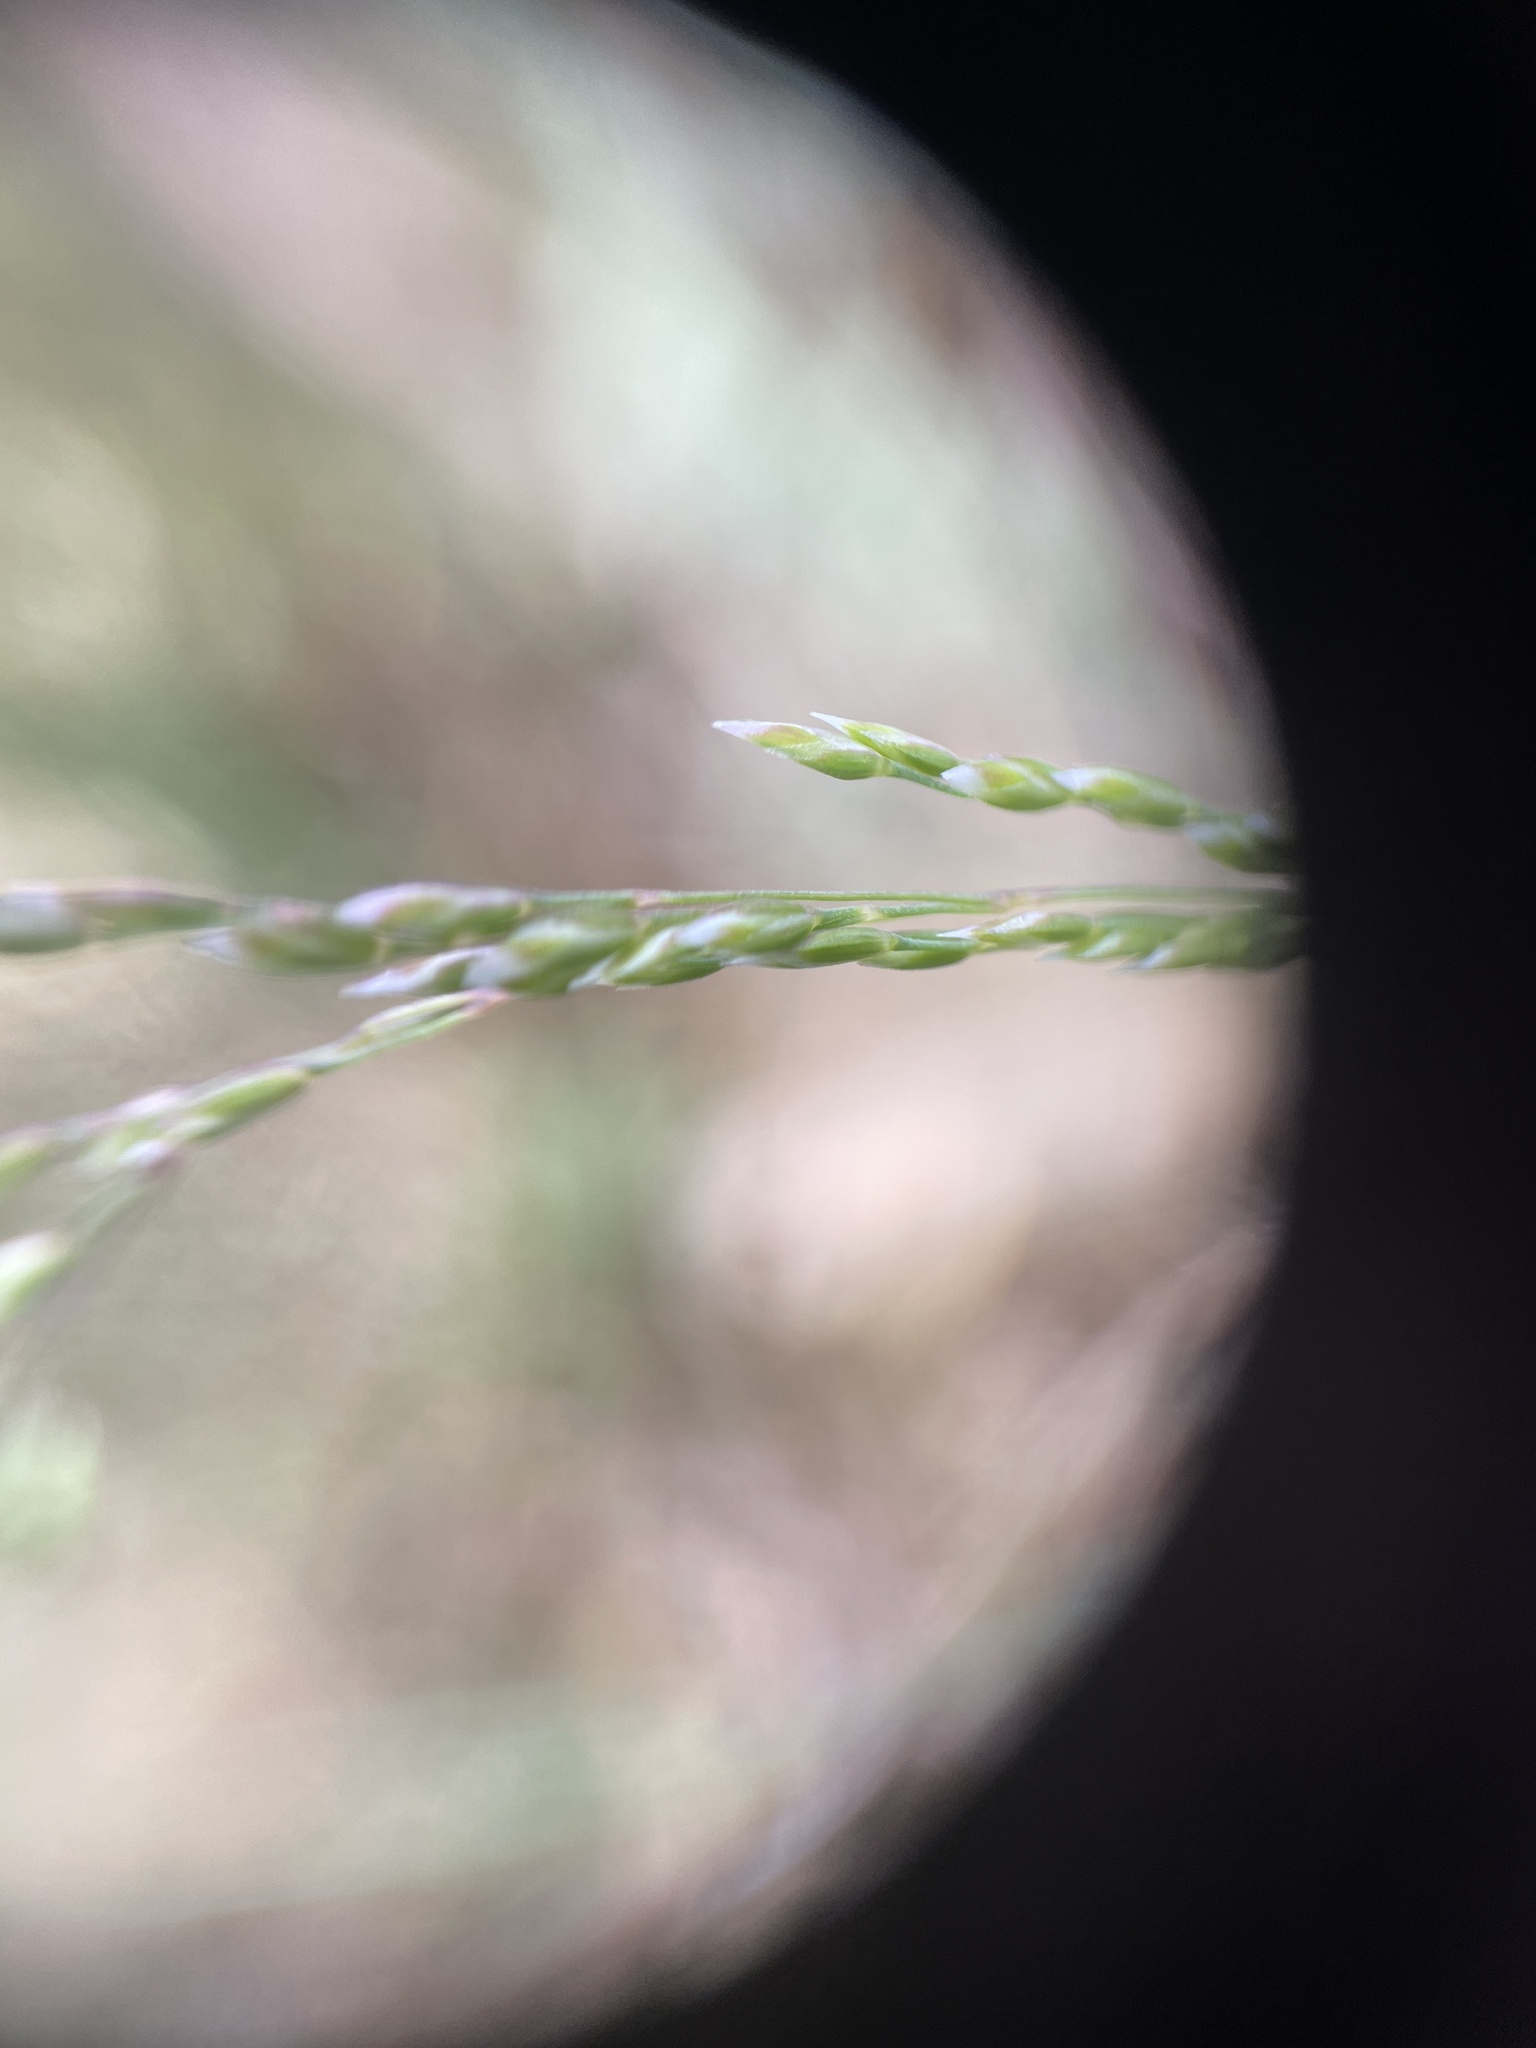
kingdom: Plantae
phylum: Tracheophyta
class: Liliopsida
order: Poales
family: Poaceae
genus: Poa
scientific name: Poa
